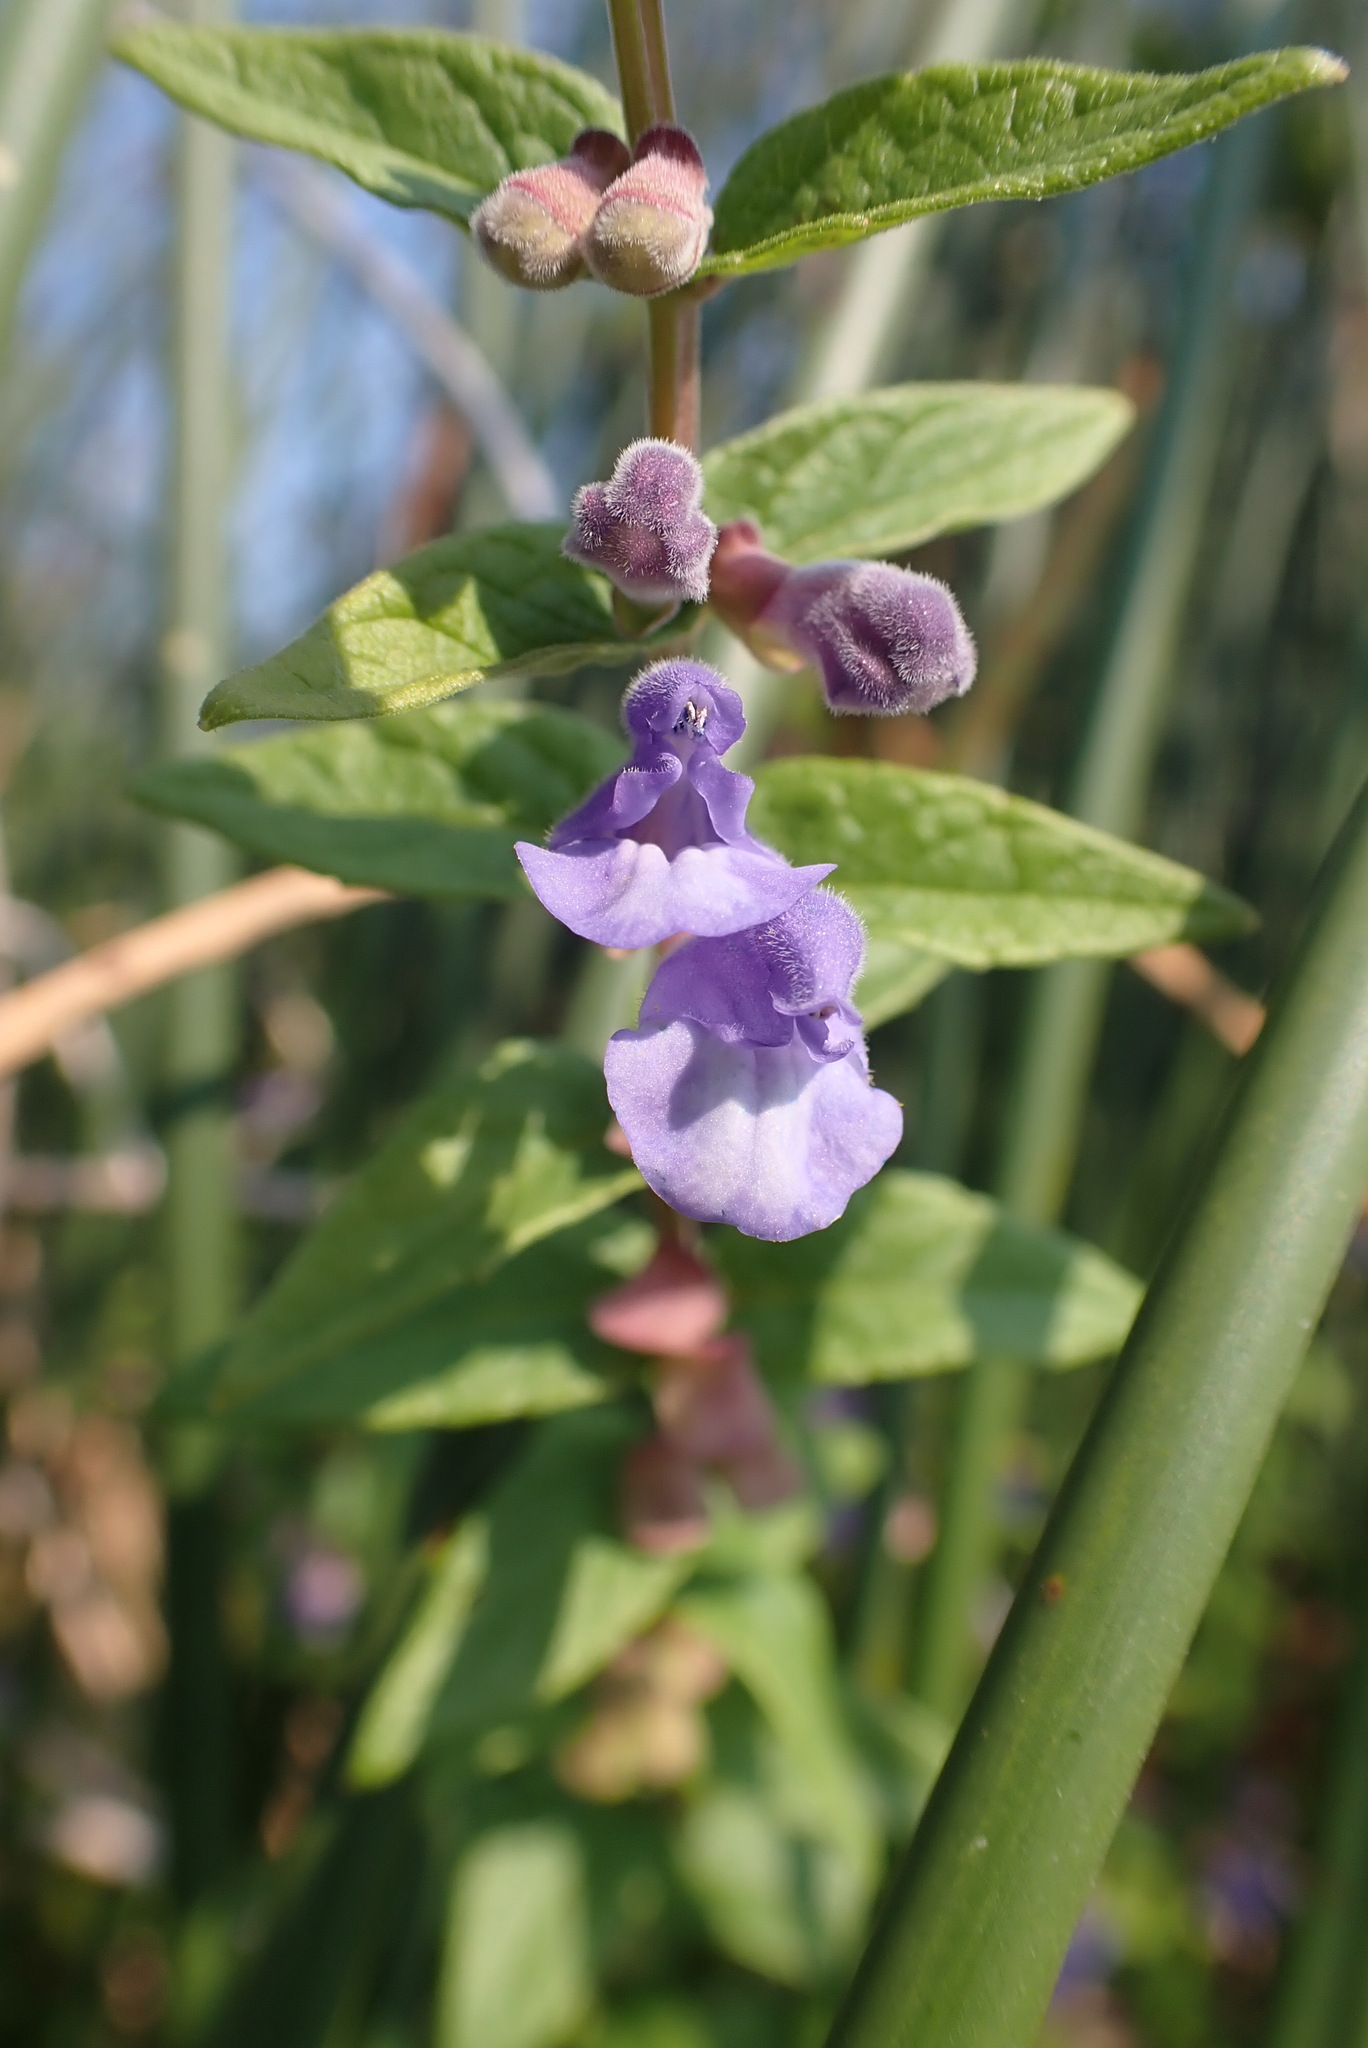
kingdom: Plantae
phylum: Tracheophyta
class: Magnoliopsida
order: Lamiales
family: Lamiaceae
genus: Scutellaria
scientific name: Scutellaria galericulata
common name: Skullcap
